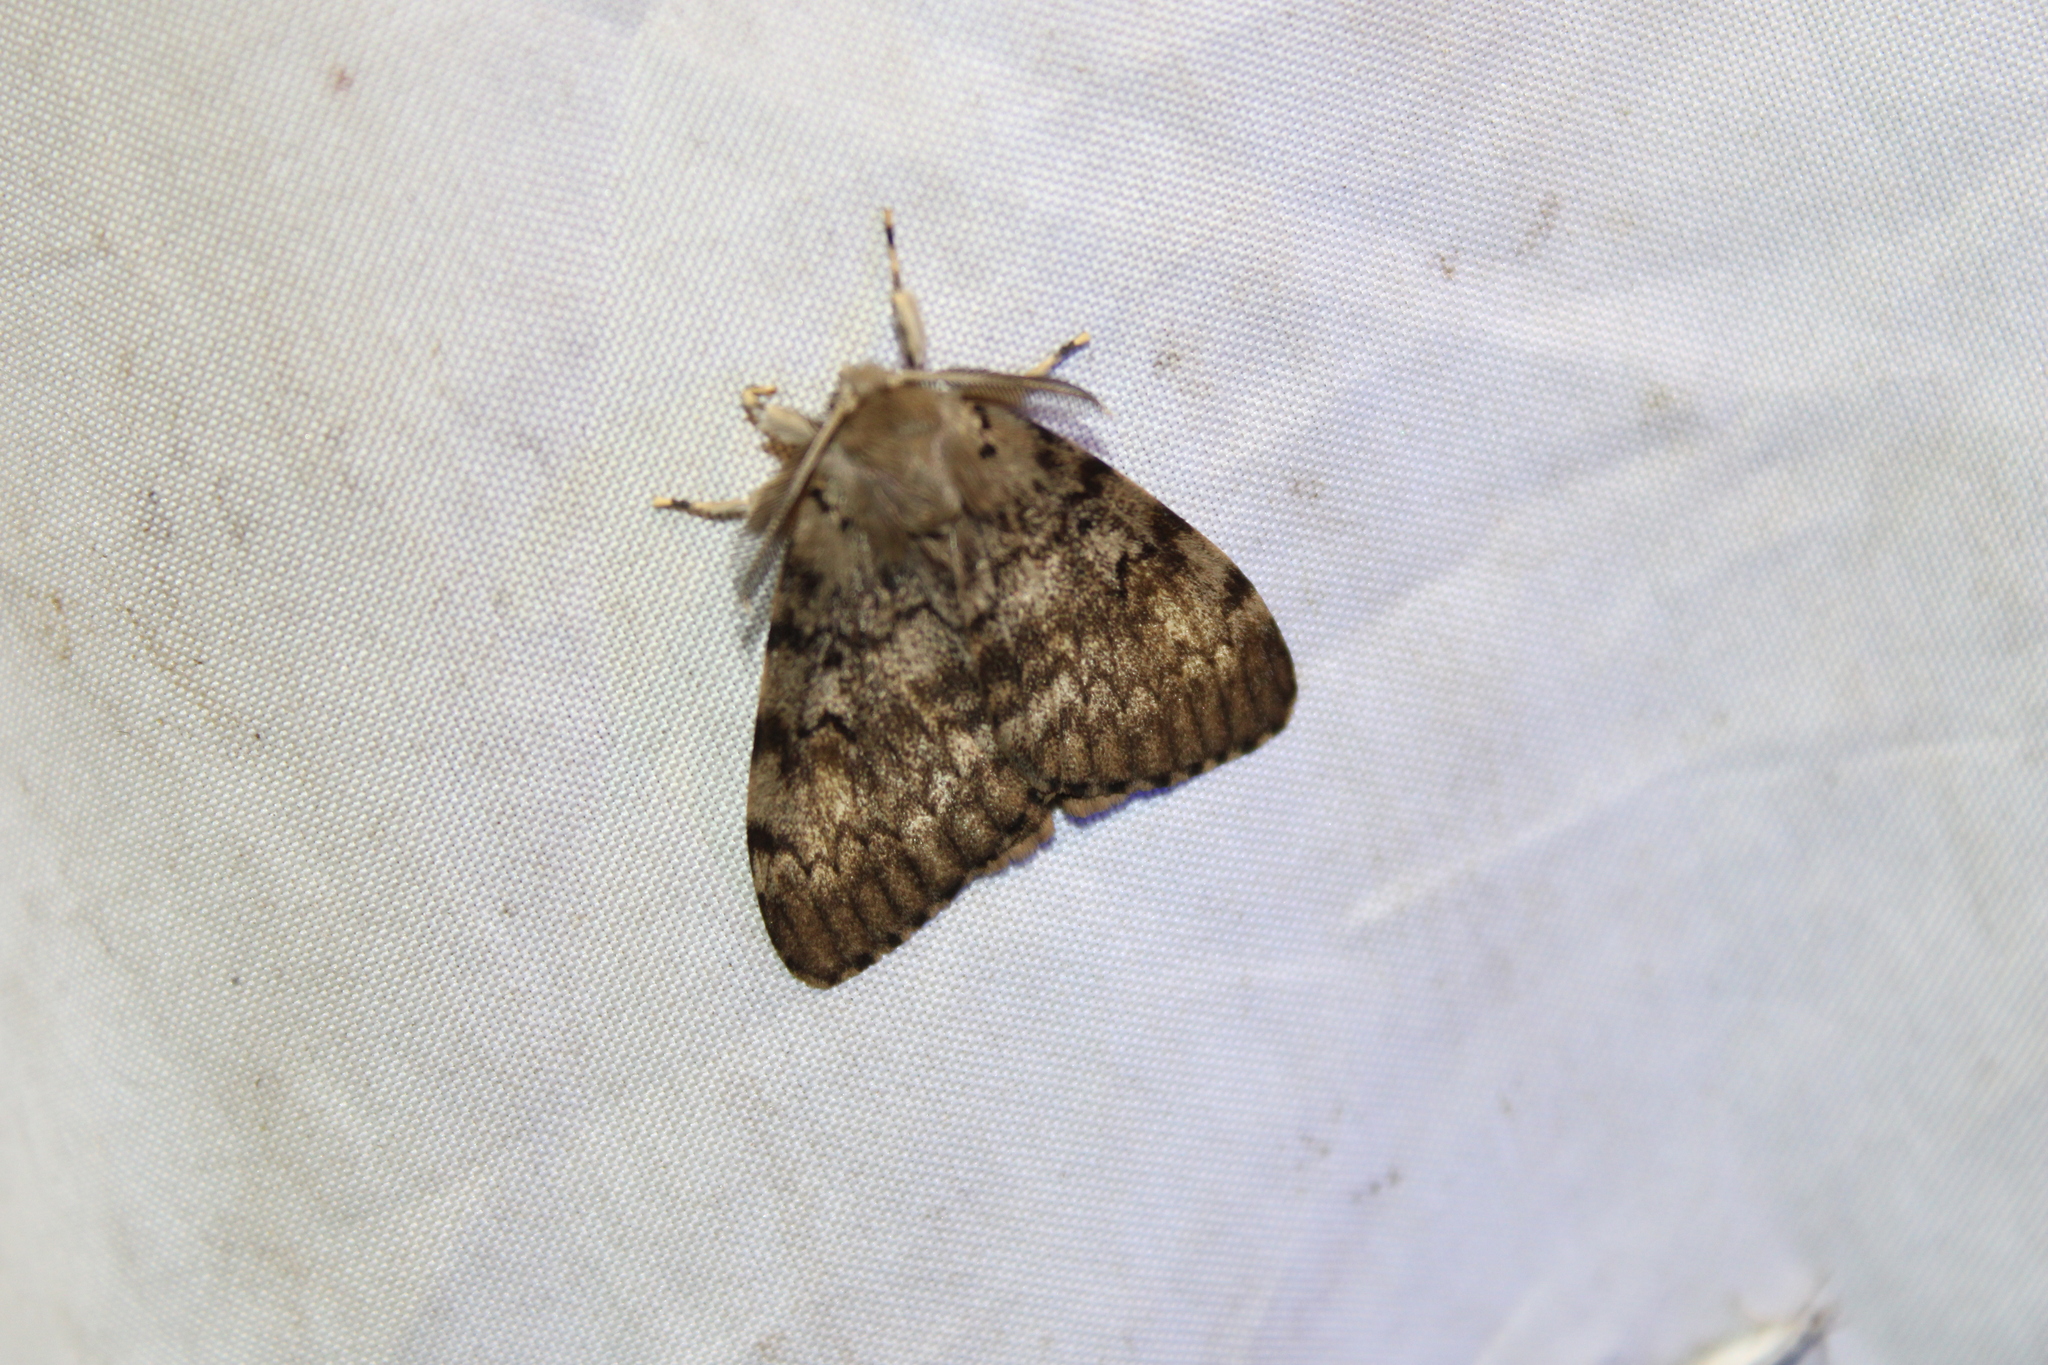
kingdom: Animalia
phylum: Arthropoda
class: Insecta
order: Lepidoptera
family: Erebidae
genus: Lymantria
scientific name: Lymantria dispar
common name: Gypsy moth
